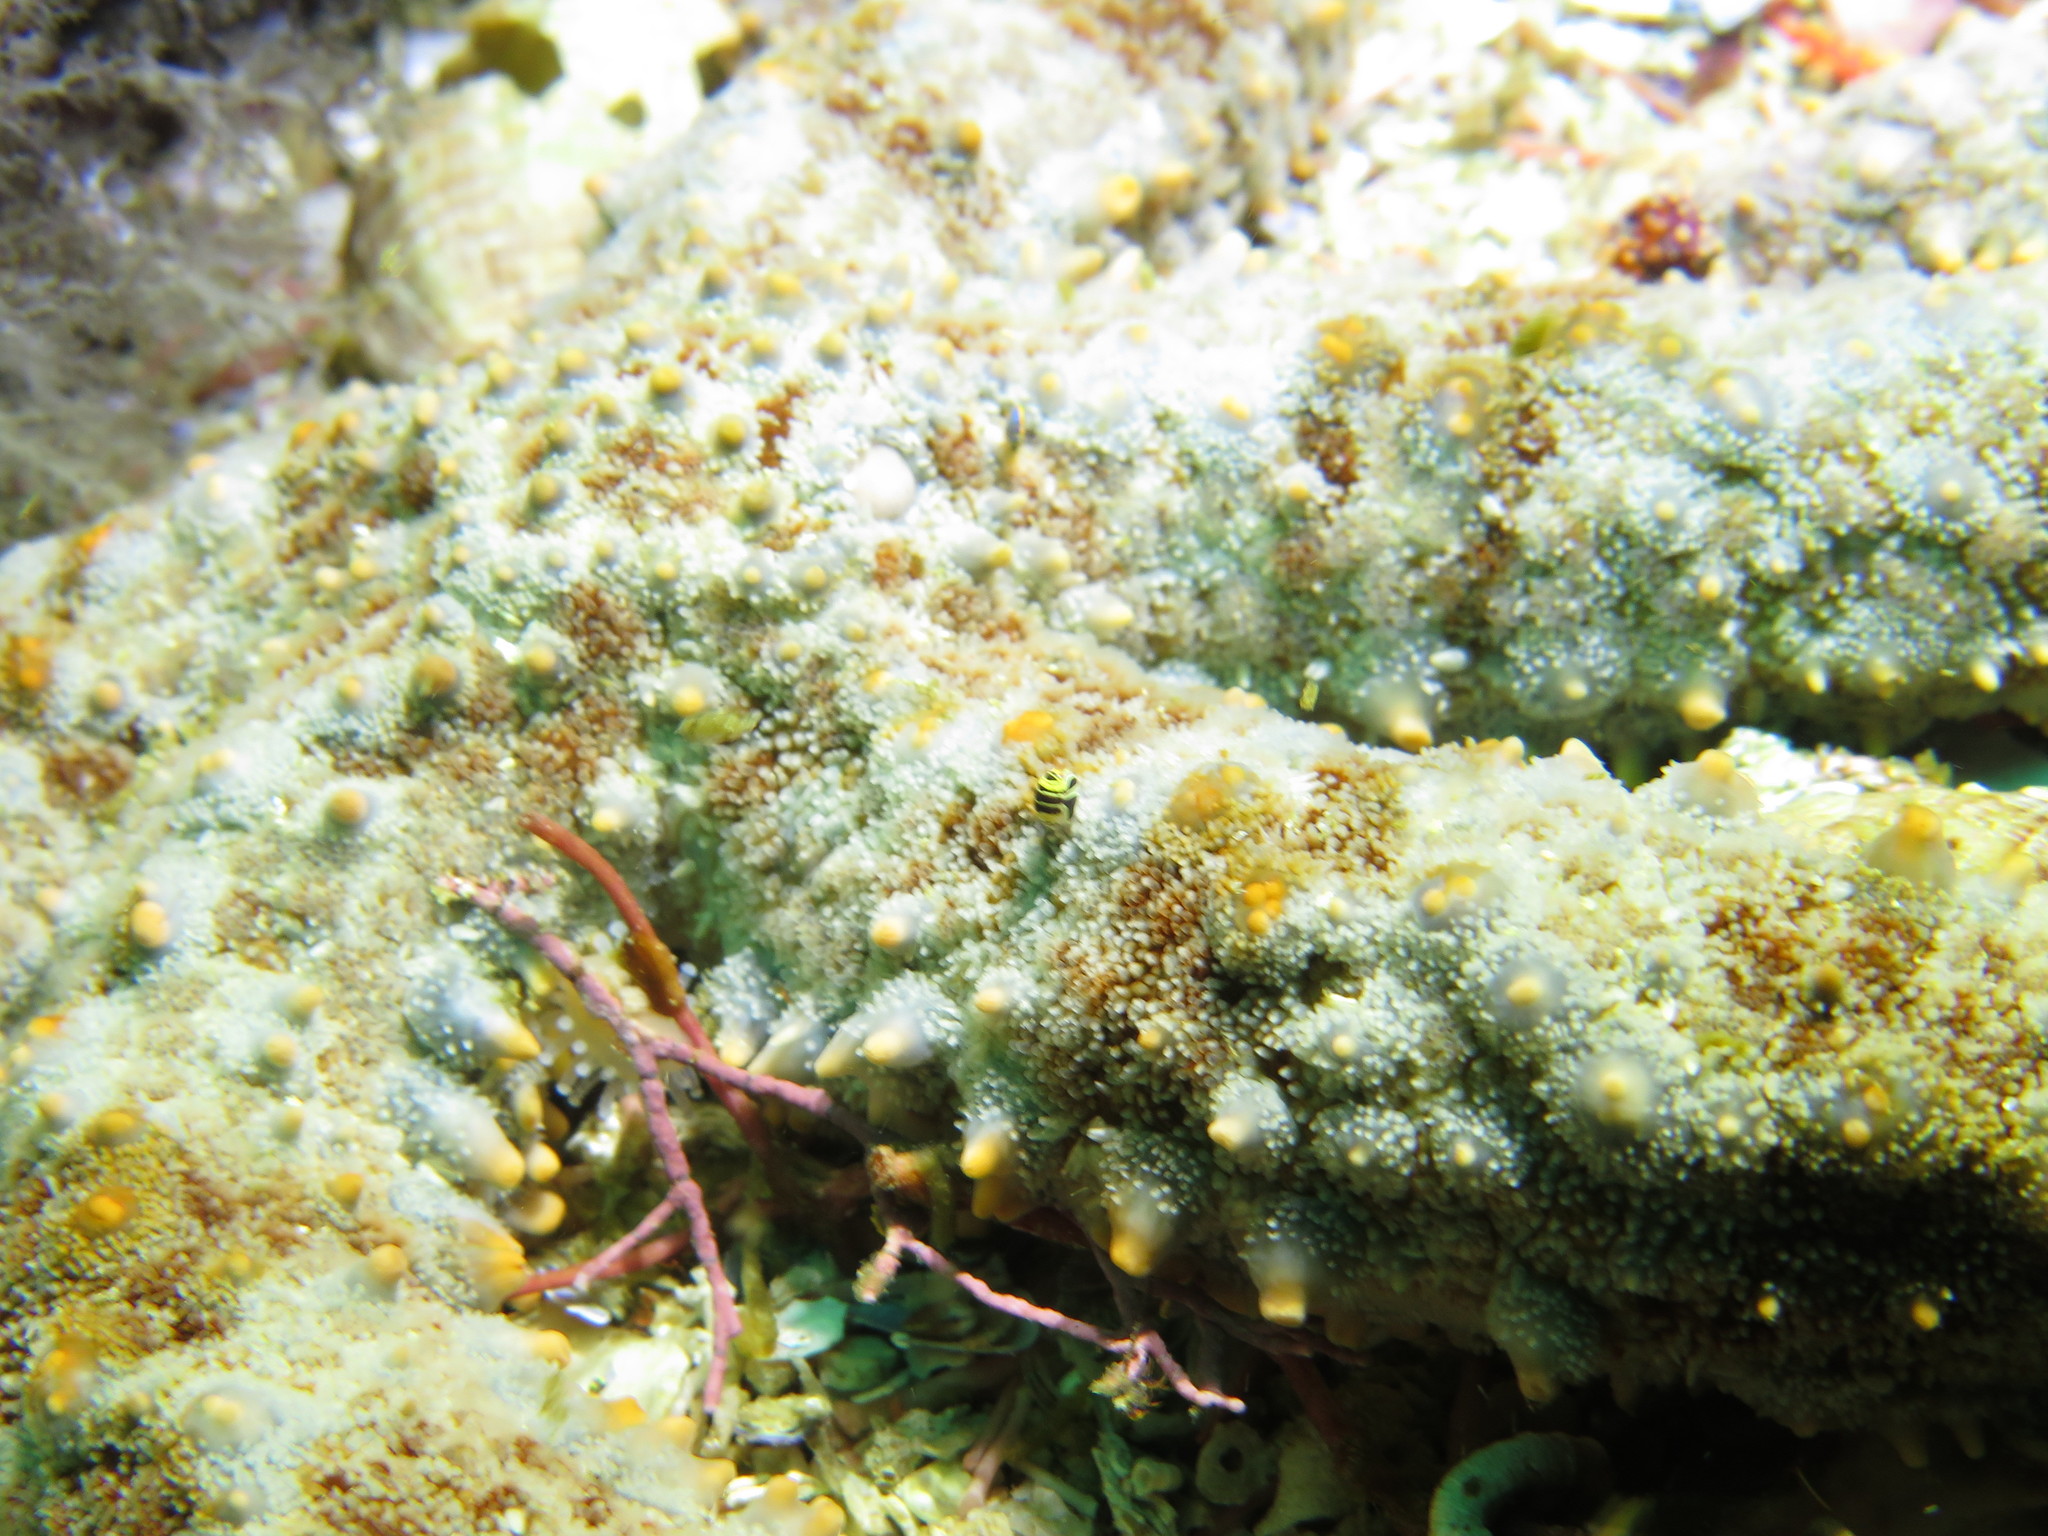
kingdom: Animalia
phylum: Echinodermata
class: Asteroidea
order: Forcipulatida
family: Asteriidae
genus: Marthasterias
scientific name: Marthasterias africana
